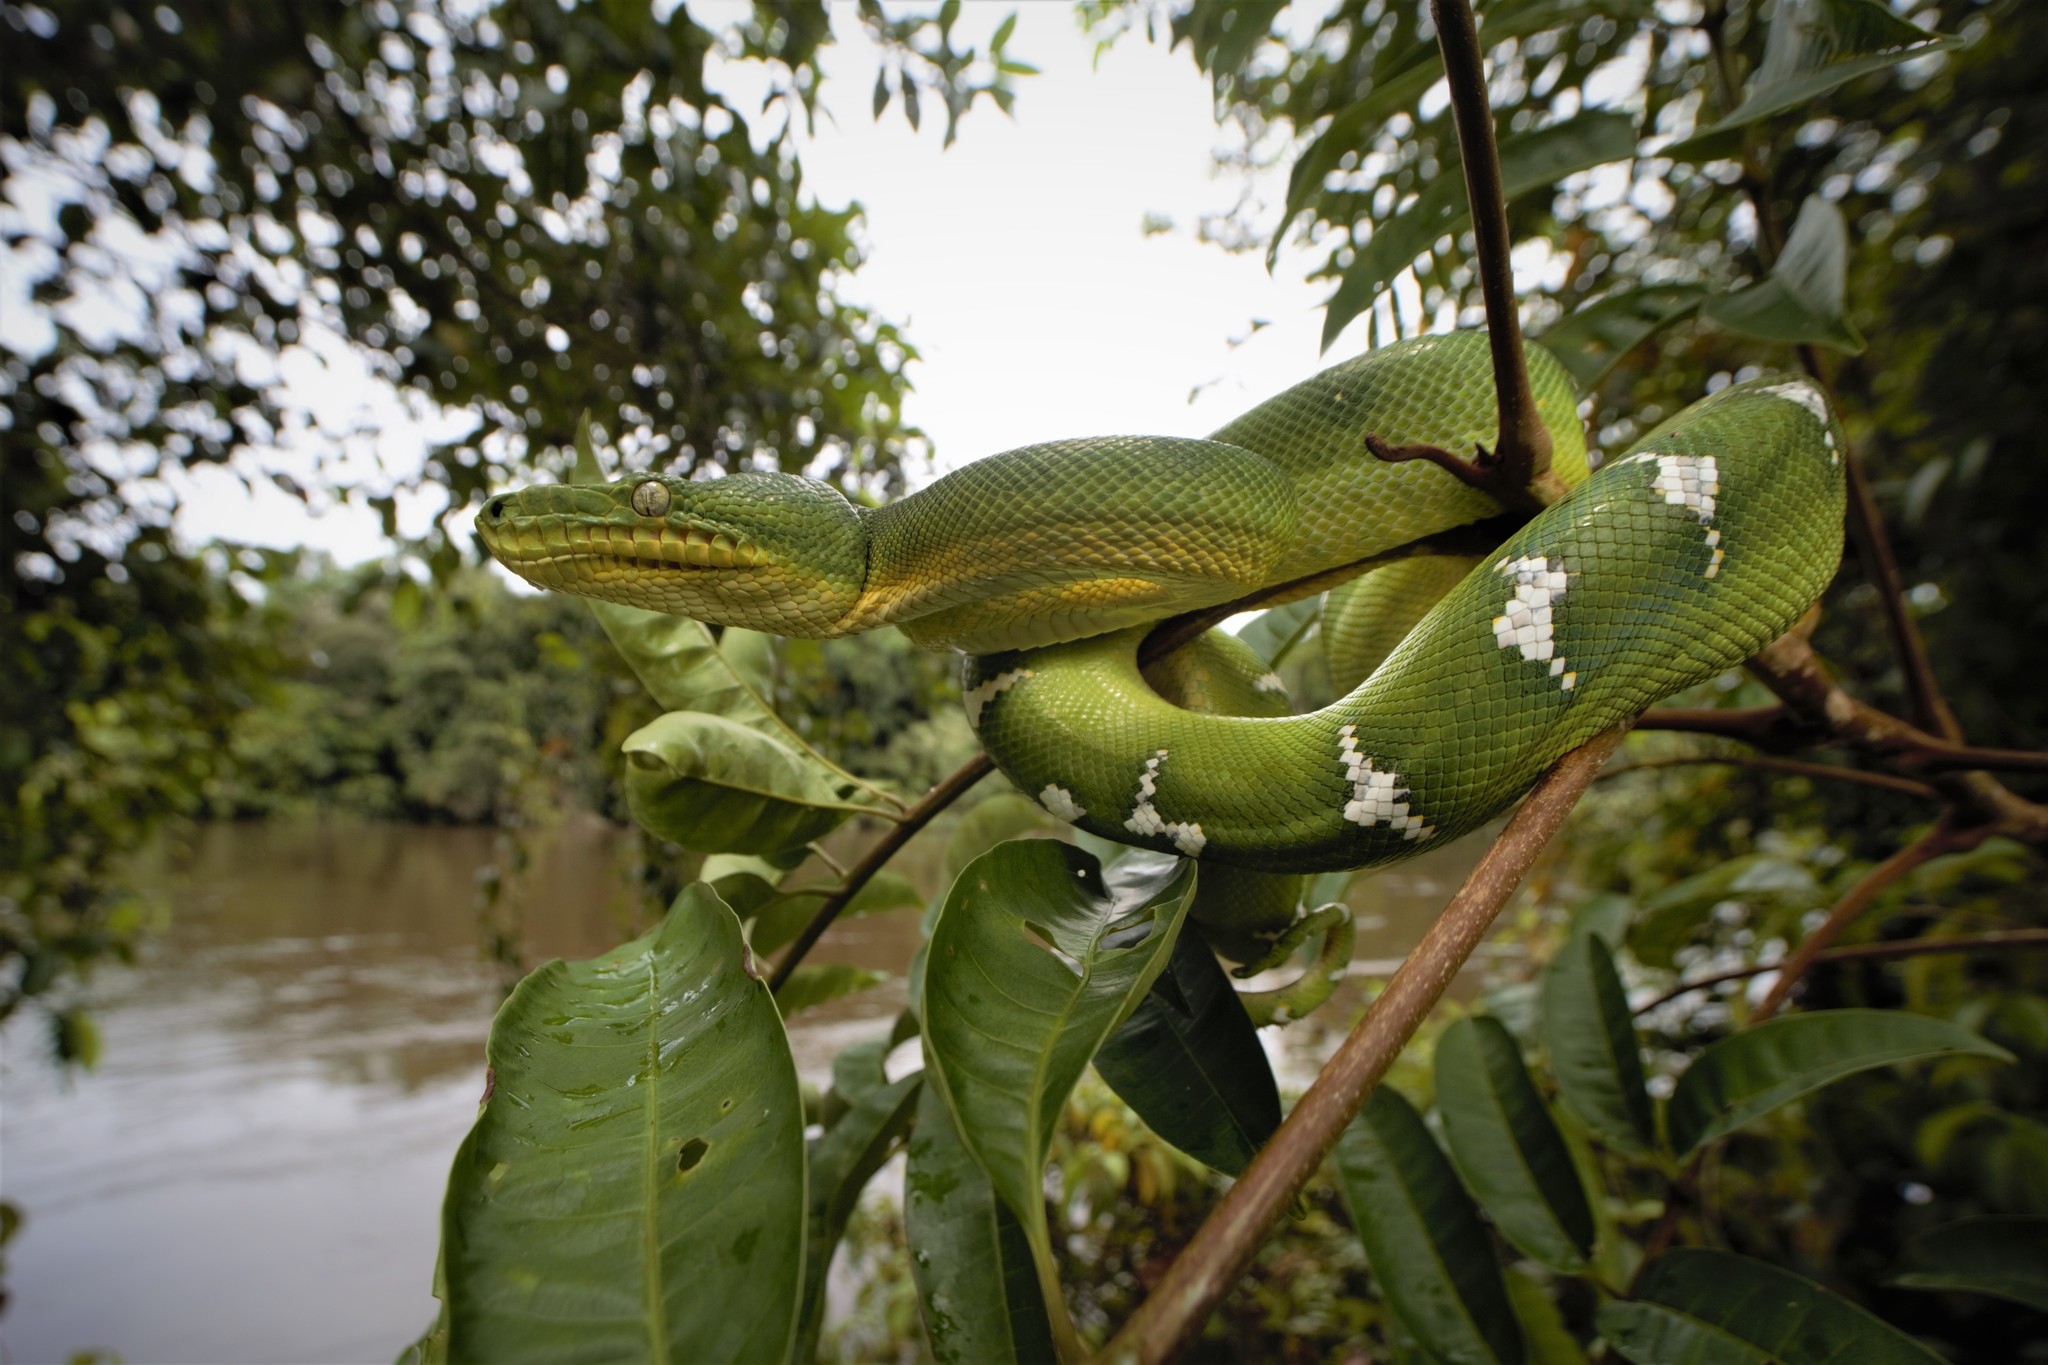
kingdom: Animalia
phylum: Chordata
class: Squamata
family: Boidae
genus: Corallus
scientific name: Corallus caninus
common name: Emerald tree boa
